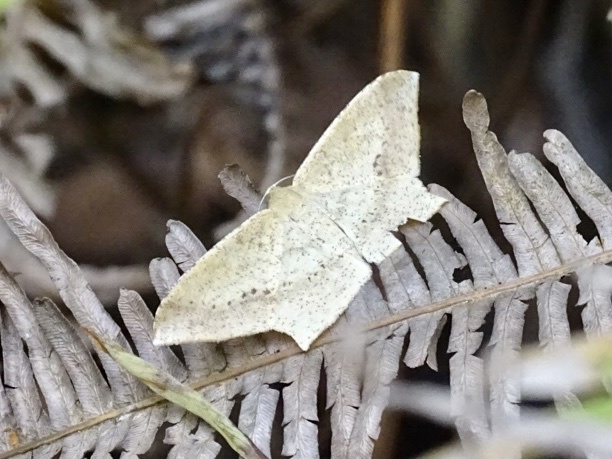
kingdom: Animalia
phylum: Arthropoda
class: Insecta
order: Lepidoptera
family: Geometridae
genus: Krananda
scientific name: Krananda falcata
